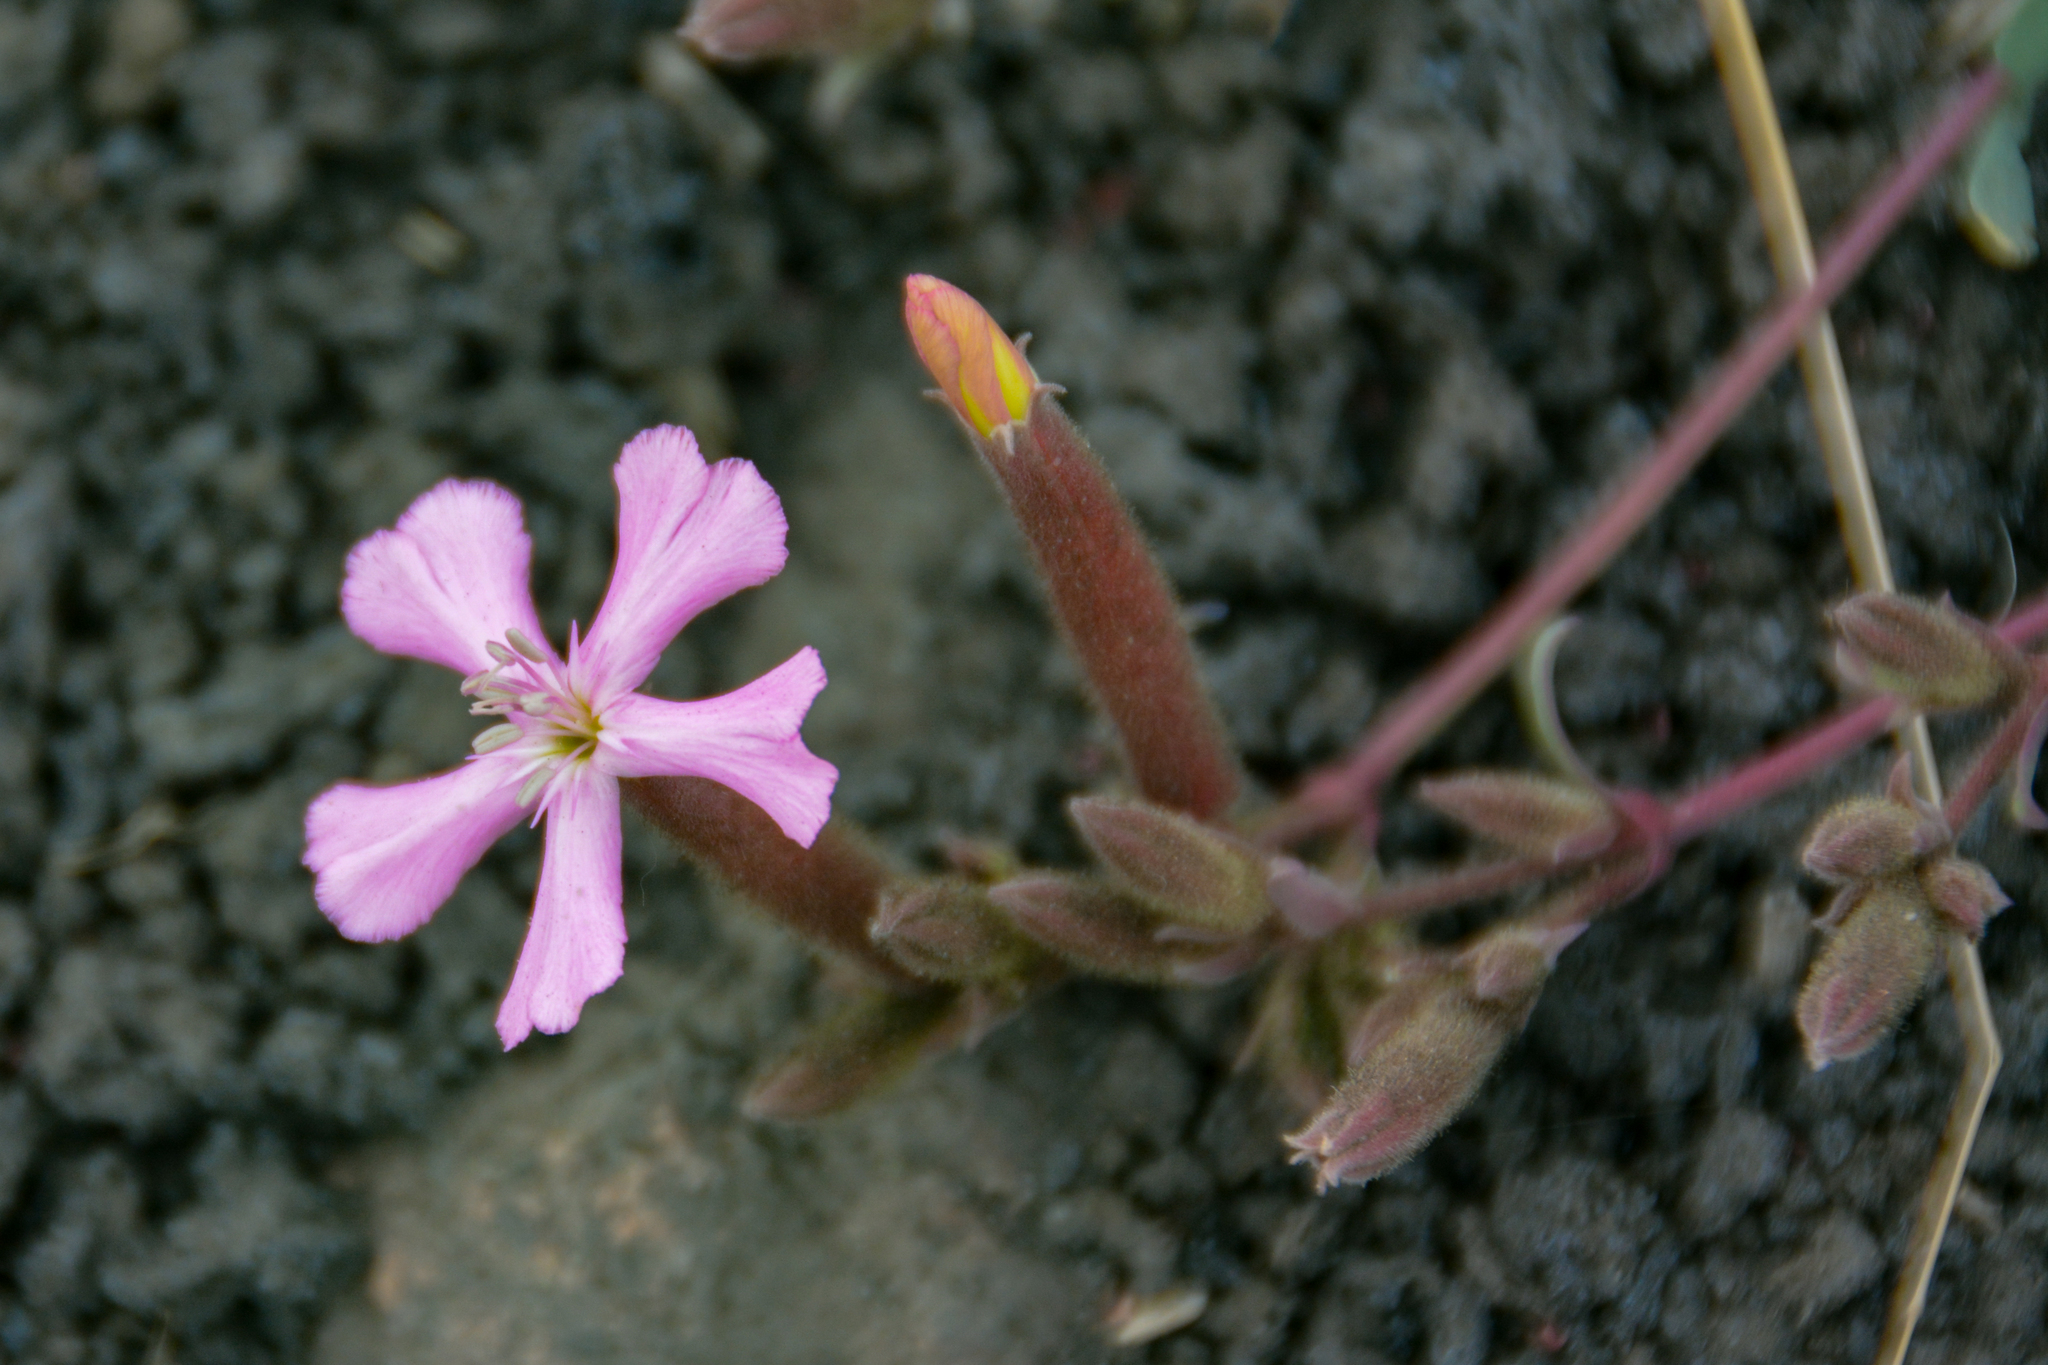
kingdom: Plantae
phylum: Tracheophyta
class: Magnoliopsida
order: Caryophyllales
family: Caryophyllaceae
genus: Saponaria
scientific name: Saponaria sicula
